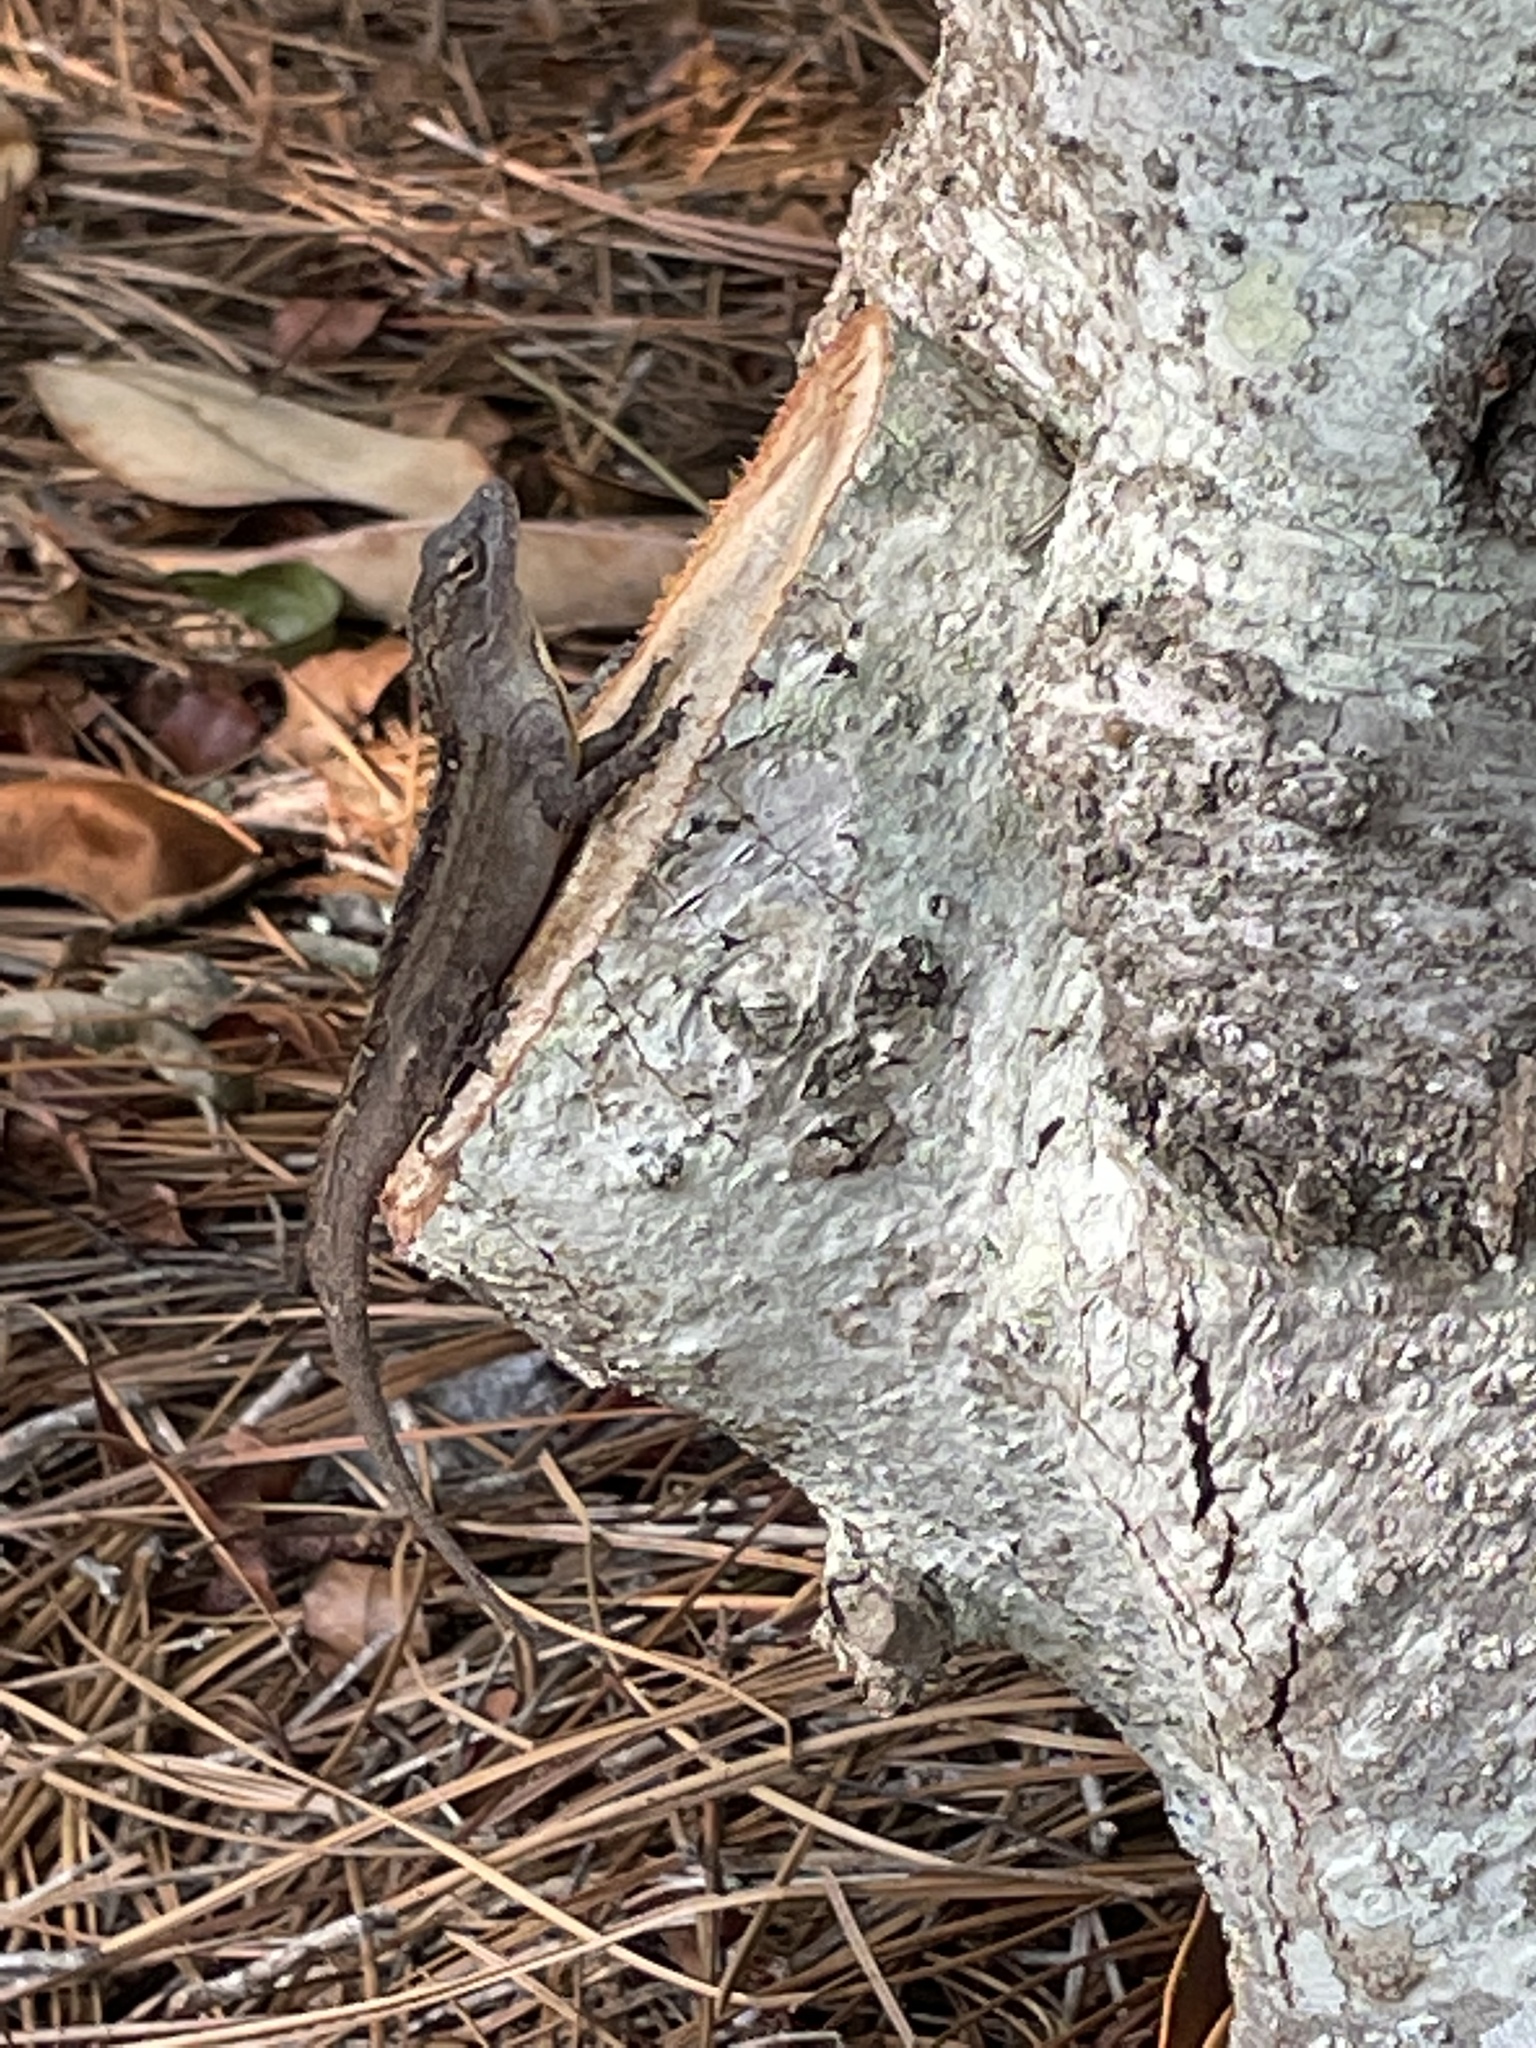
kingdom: Animalia
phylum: Chordata
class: Squamata
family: Dactyloidae
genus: Anolis
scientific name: Anolis sagrei
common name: Brown anole
